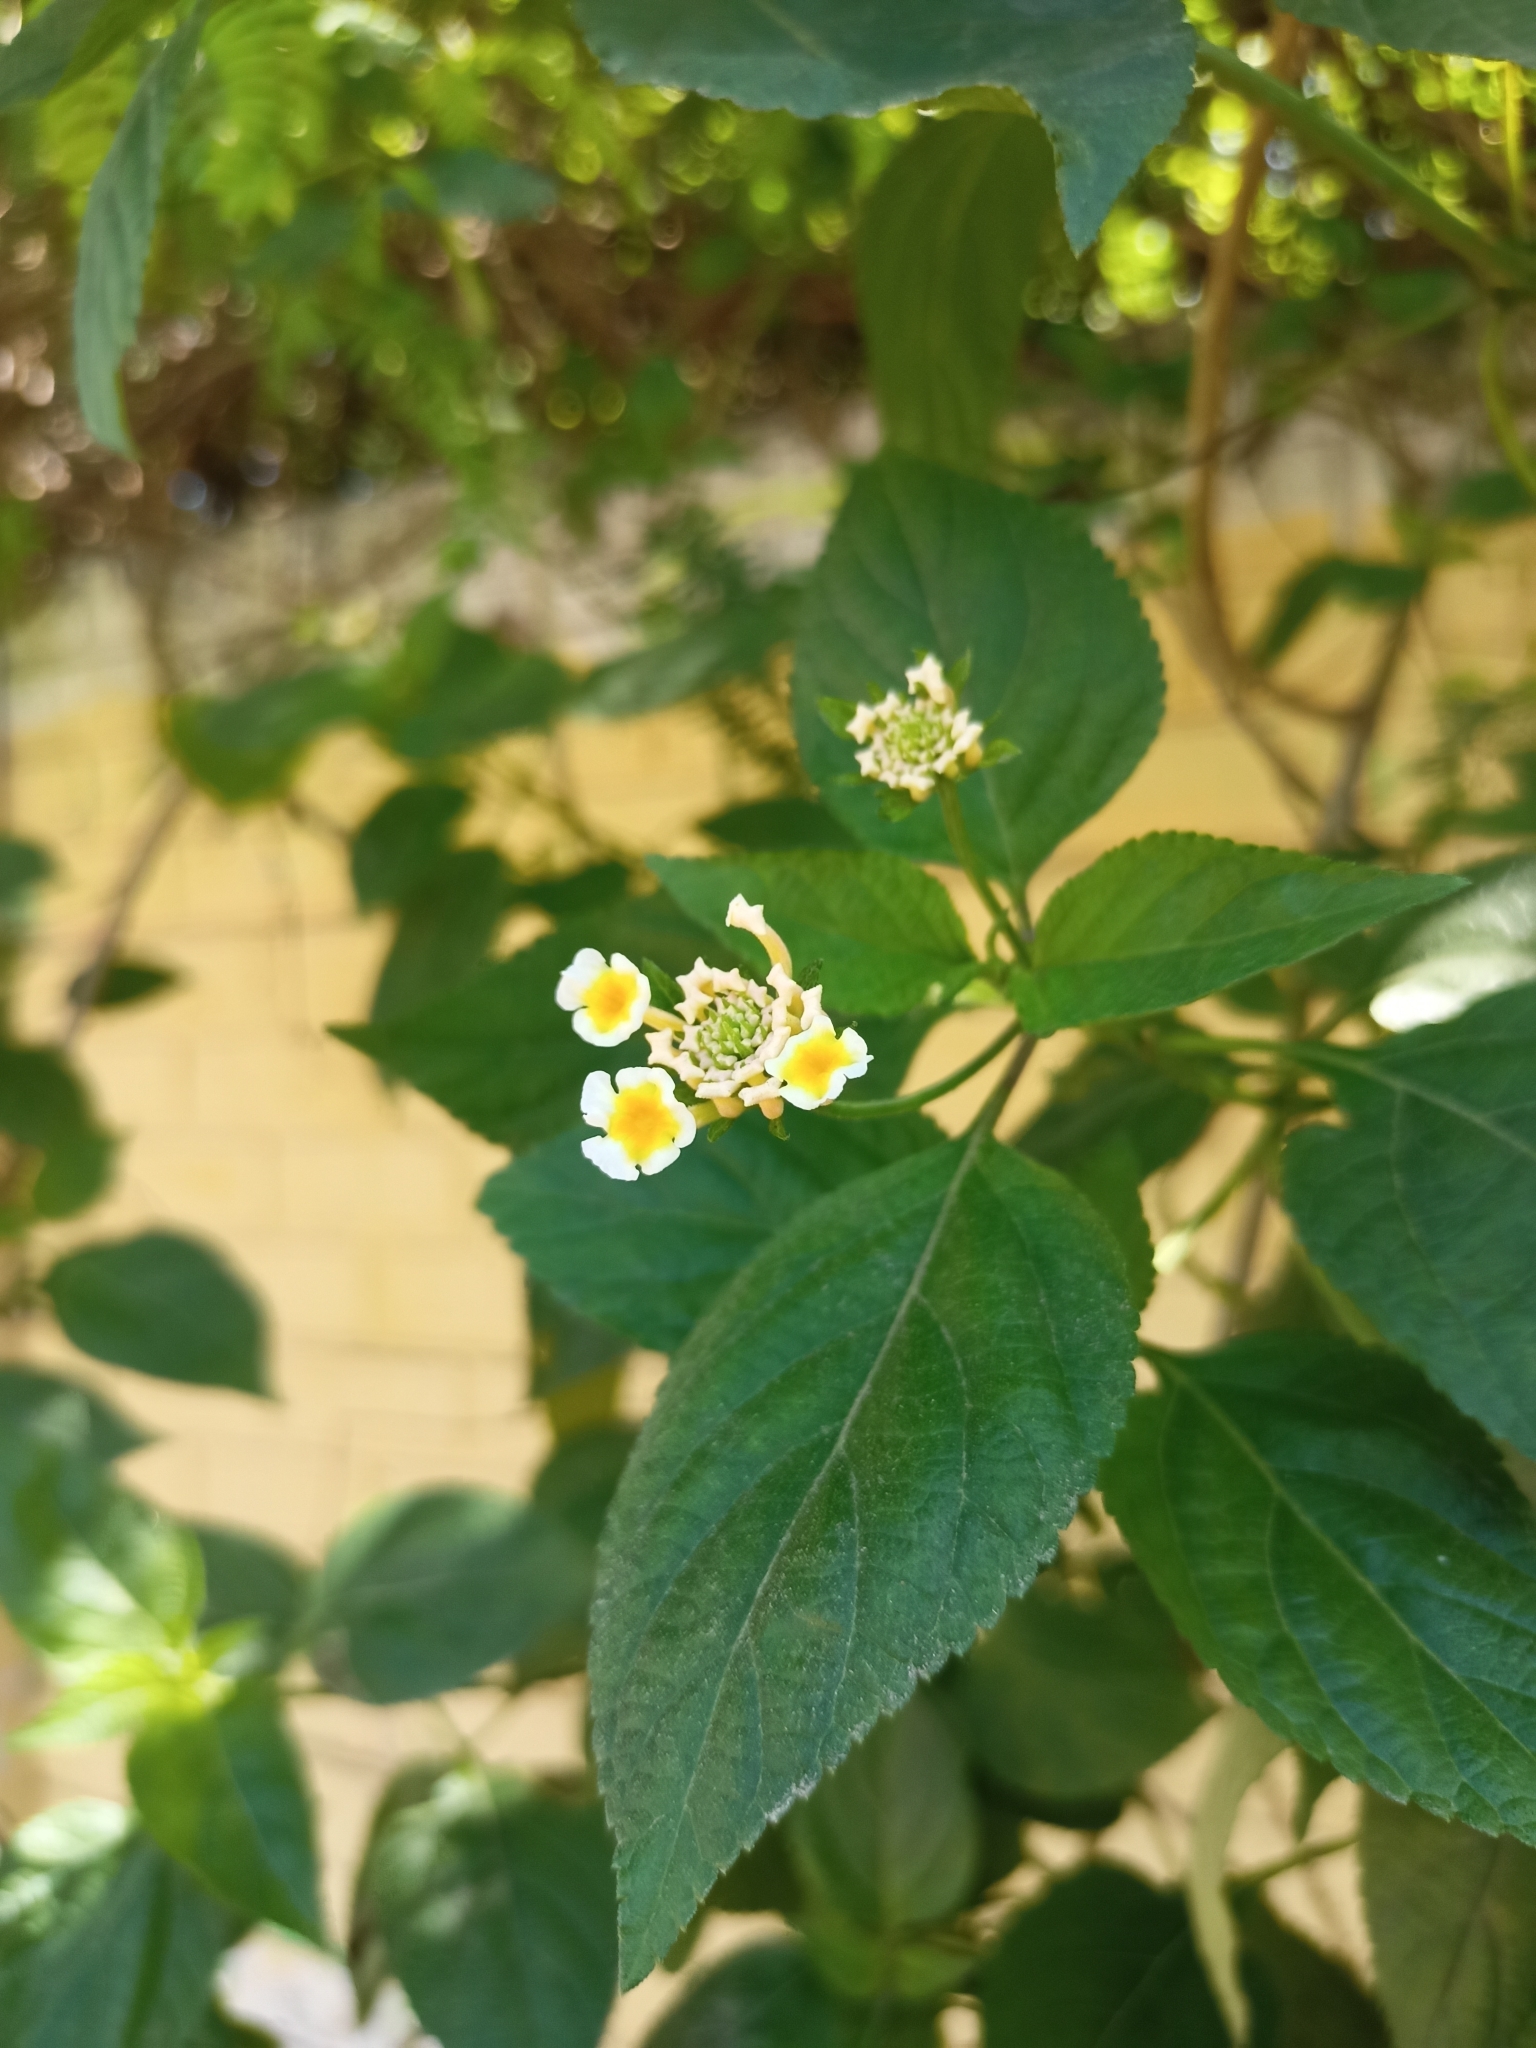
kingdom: Plantae
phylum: Tracheophyta
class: Magnoliopsida
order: Lamiales
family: Verbenaceae
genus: Lantana
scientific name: Lantana camara
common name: Lantana
